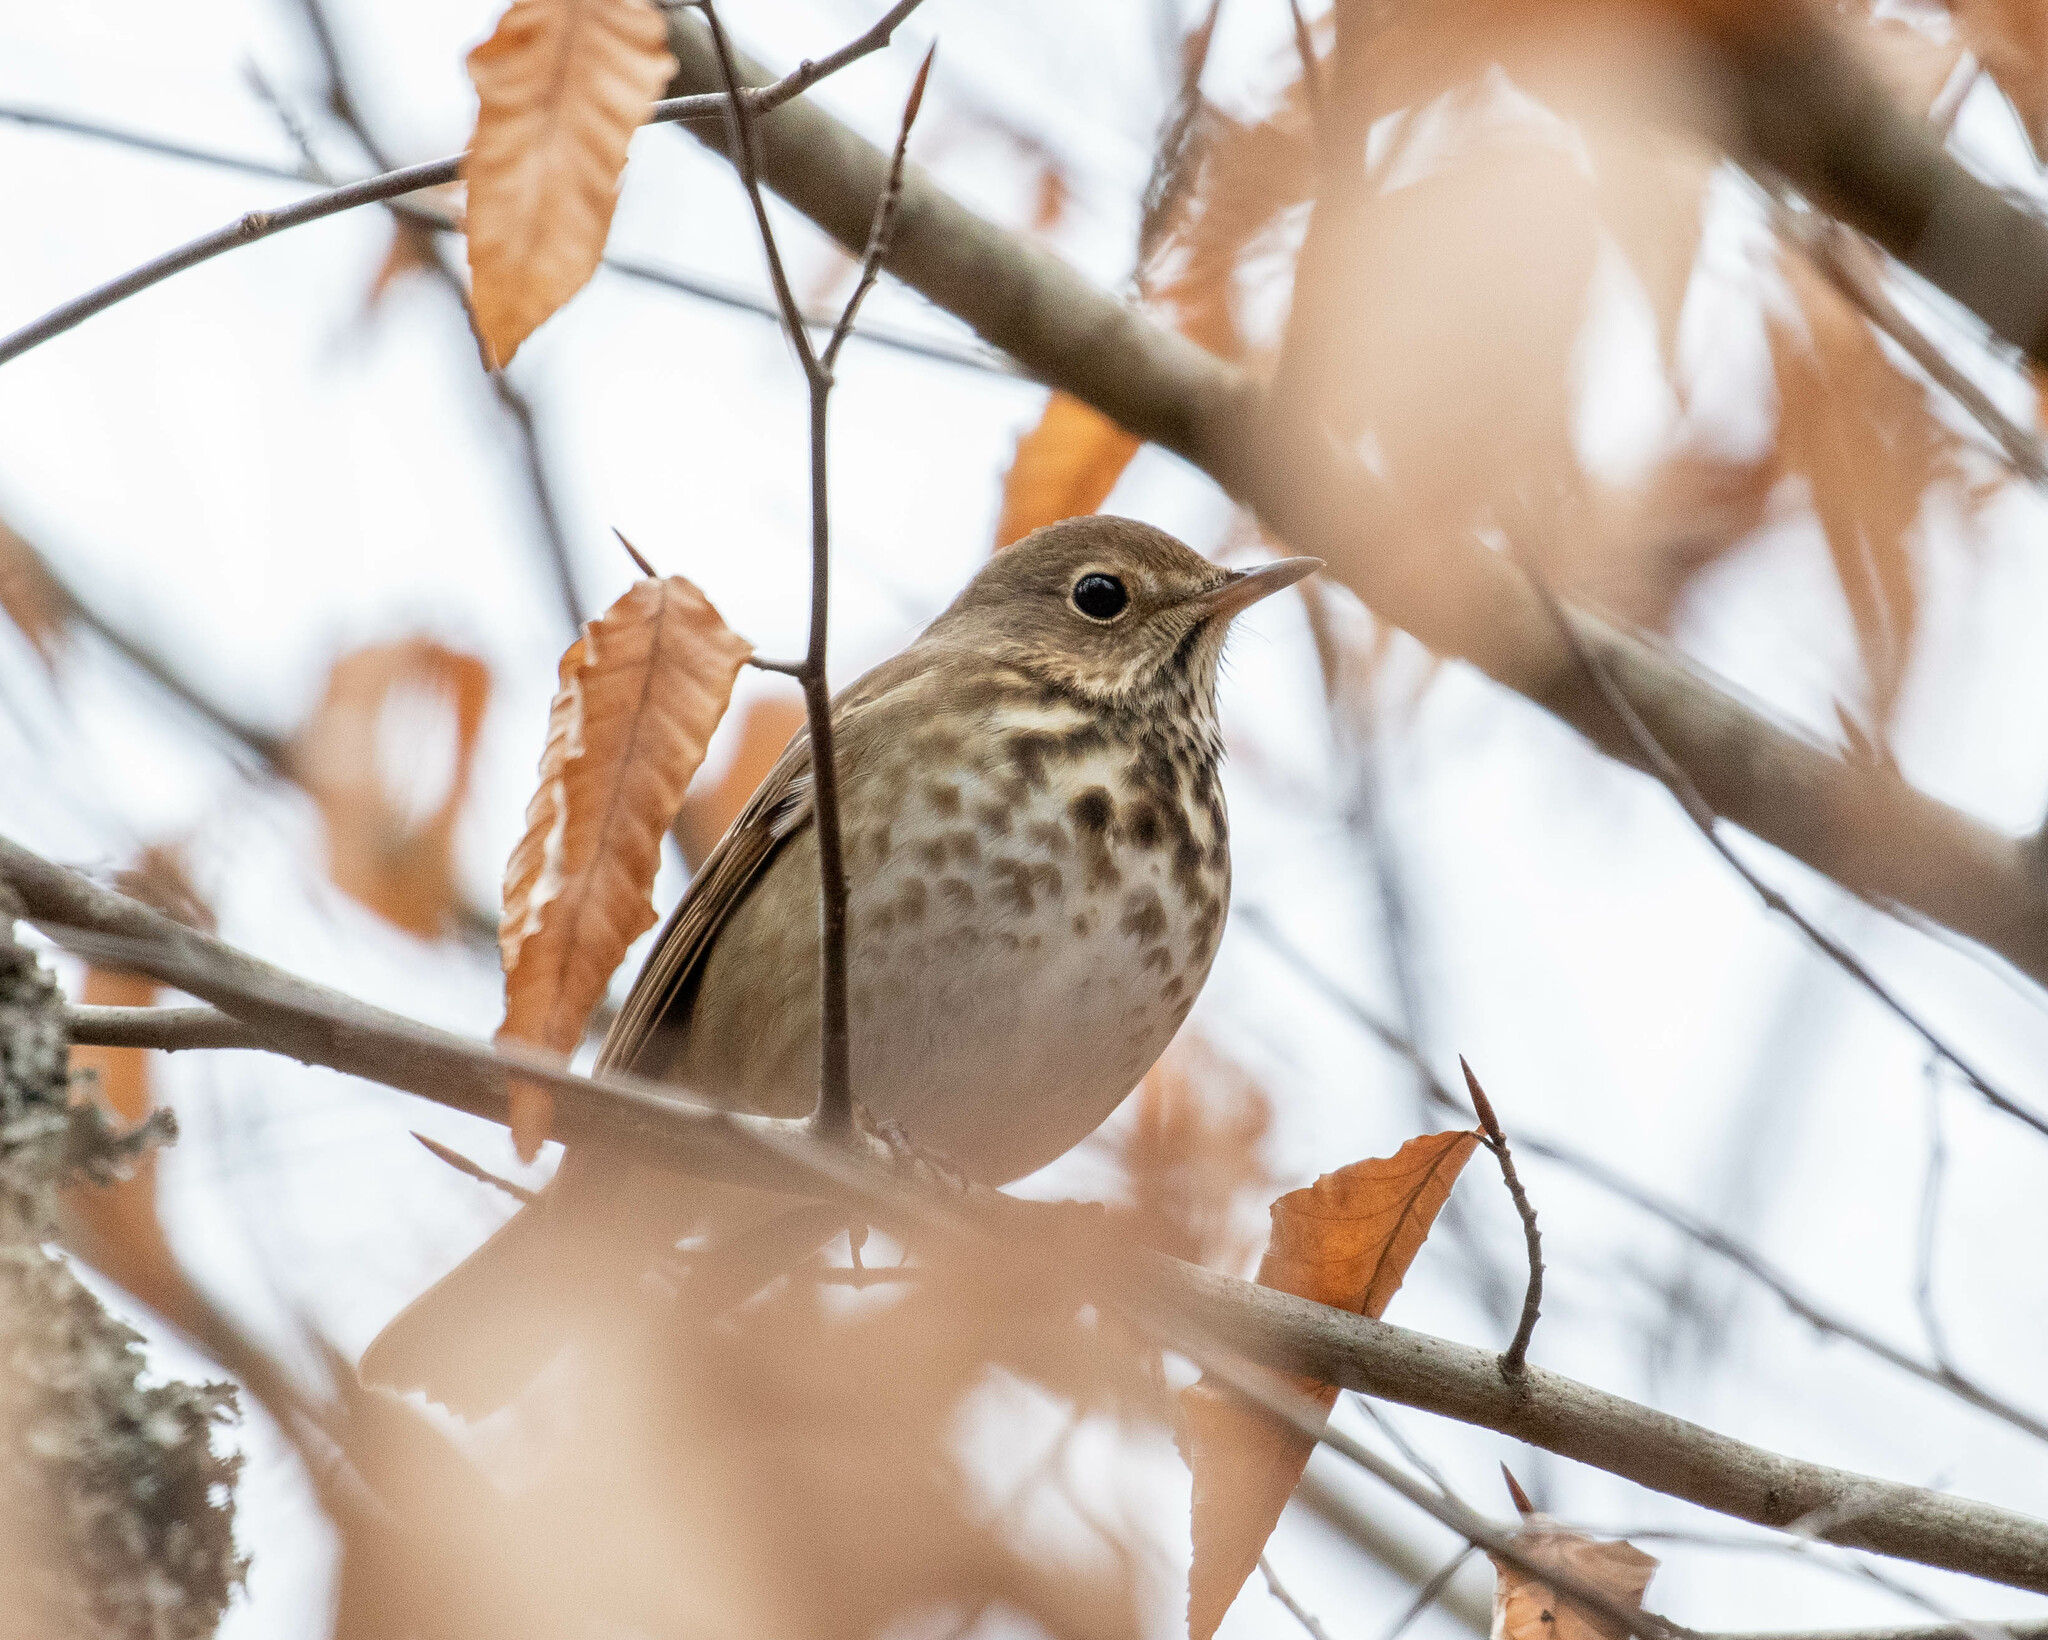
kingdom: Animalia
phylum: Chordata
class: Aves
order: Passeriformes
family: Turdidae
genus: Catharus
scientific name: Catharus guttatus
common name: Hermit thrush
